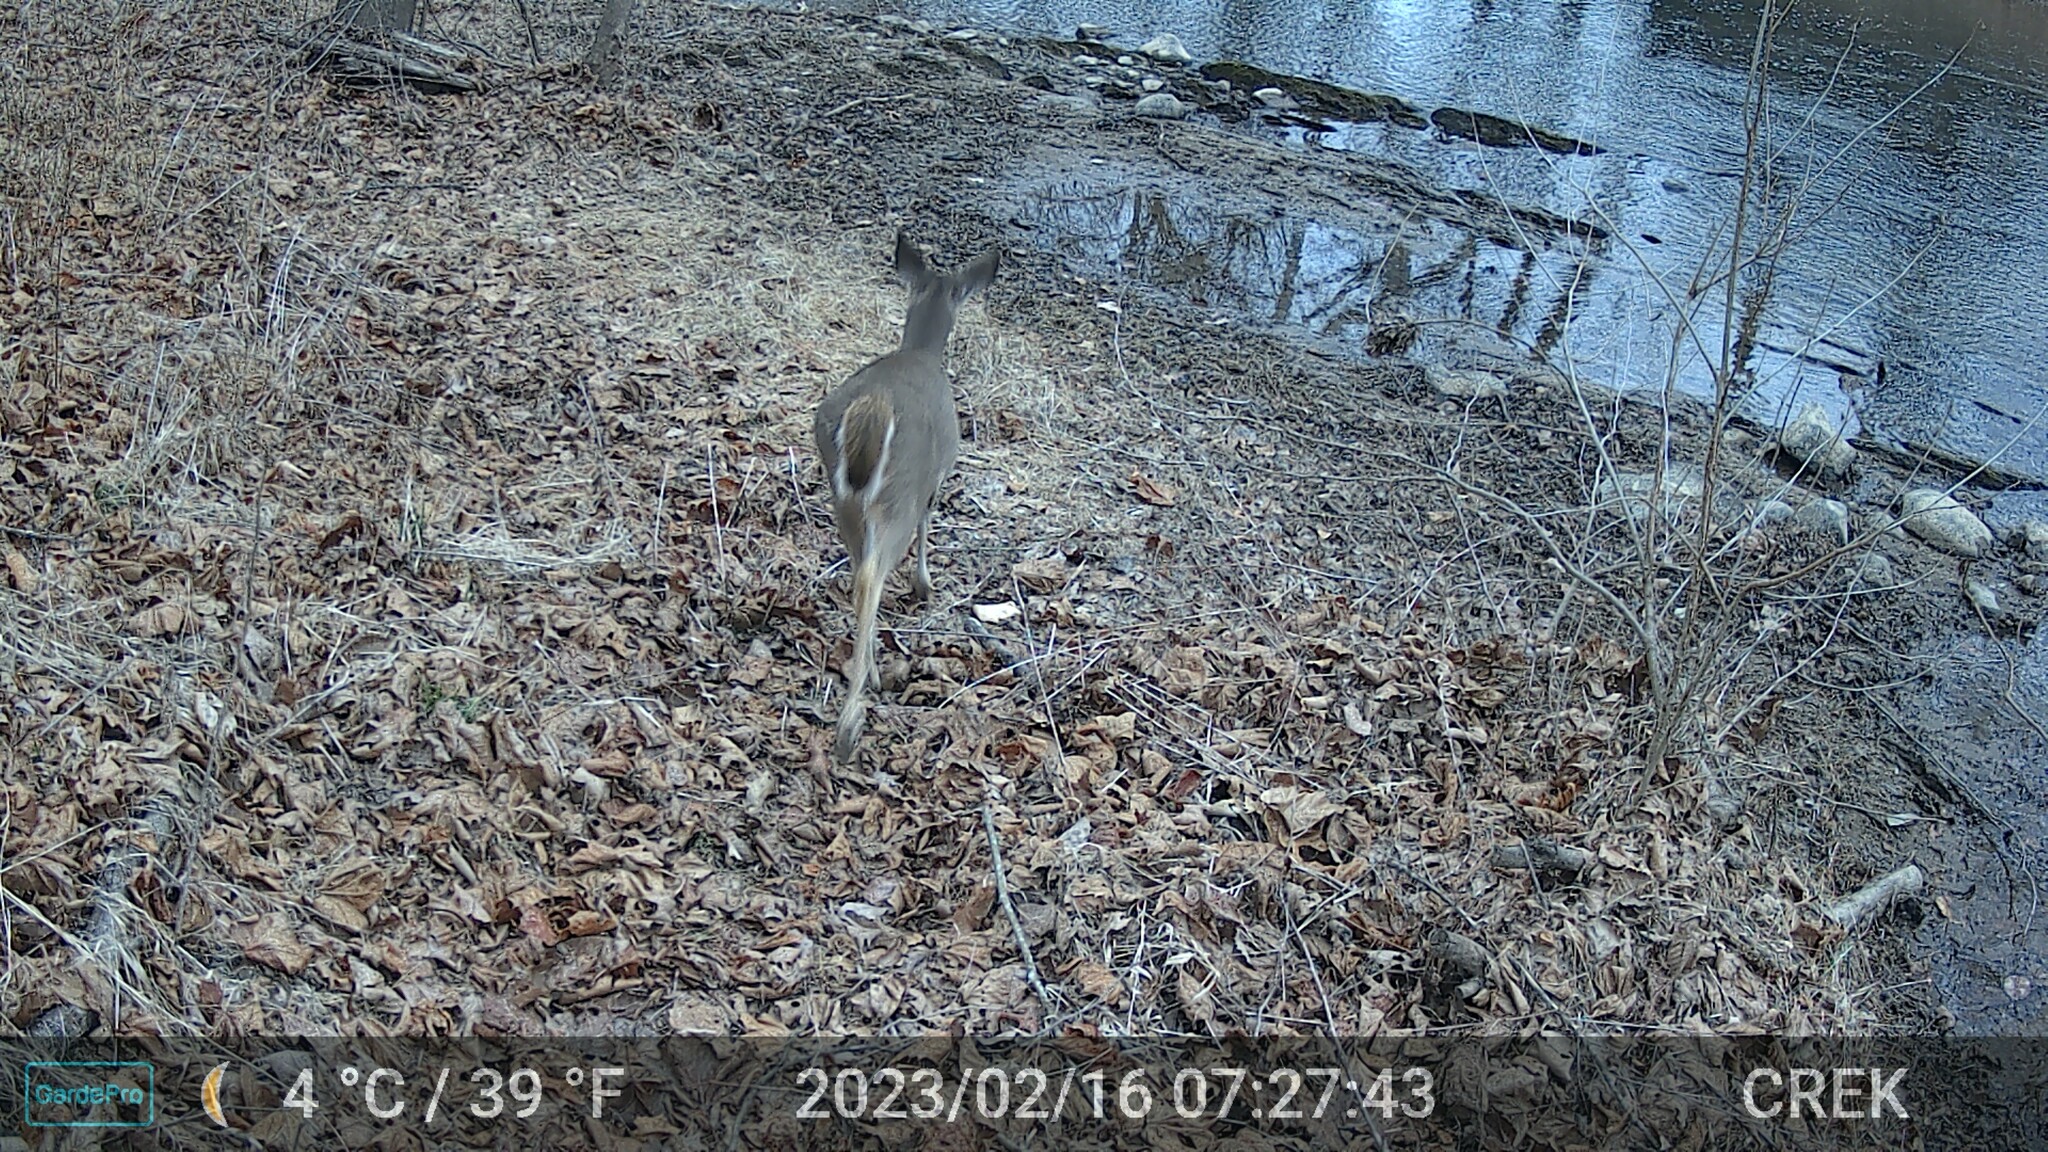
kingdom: Animalia
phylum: Chordata
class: Mammalia
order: Artiodactyla
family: Cervidae
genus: Odocoileus
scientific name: Odocoileus virginianus
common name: White-tailed deer
